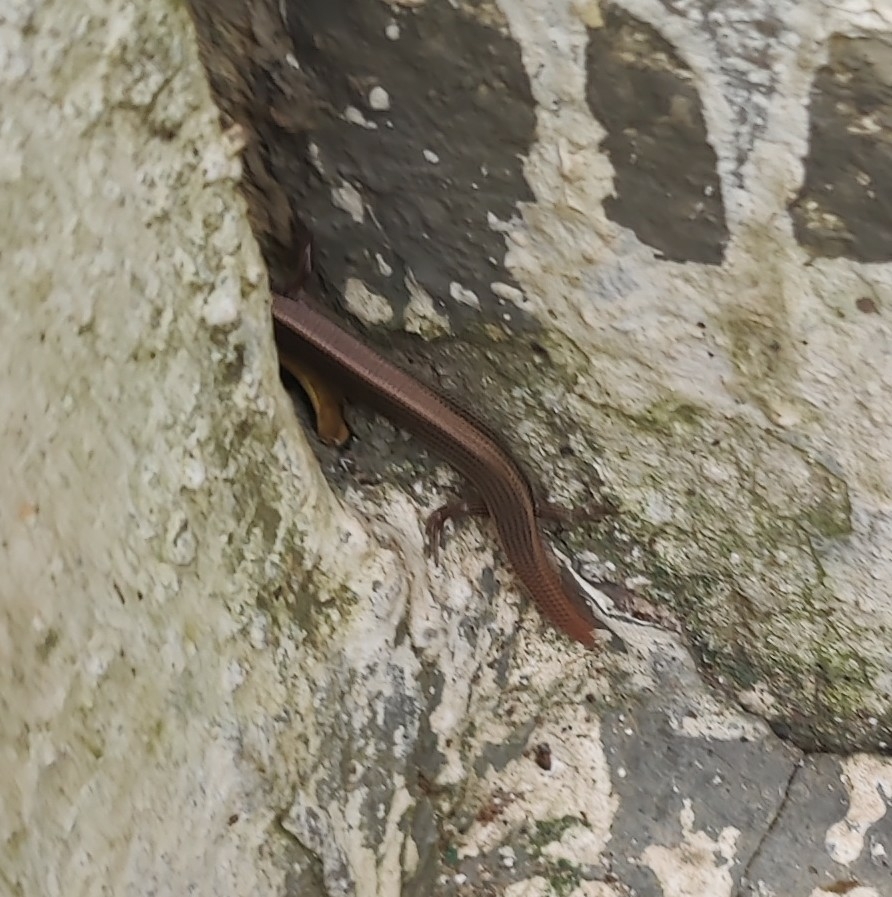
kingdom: Animalia
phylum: Chordata
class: Squamata
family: Scincidae
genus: Riopa
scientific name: Riopa punctata
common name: Common dotted garden skink
